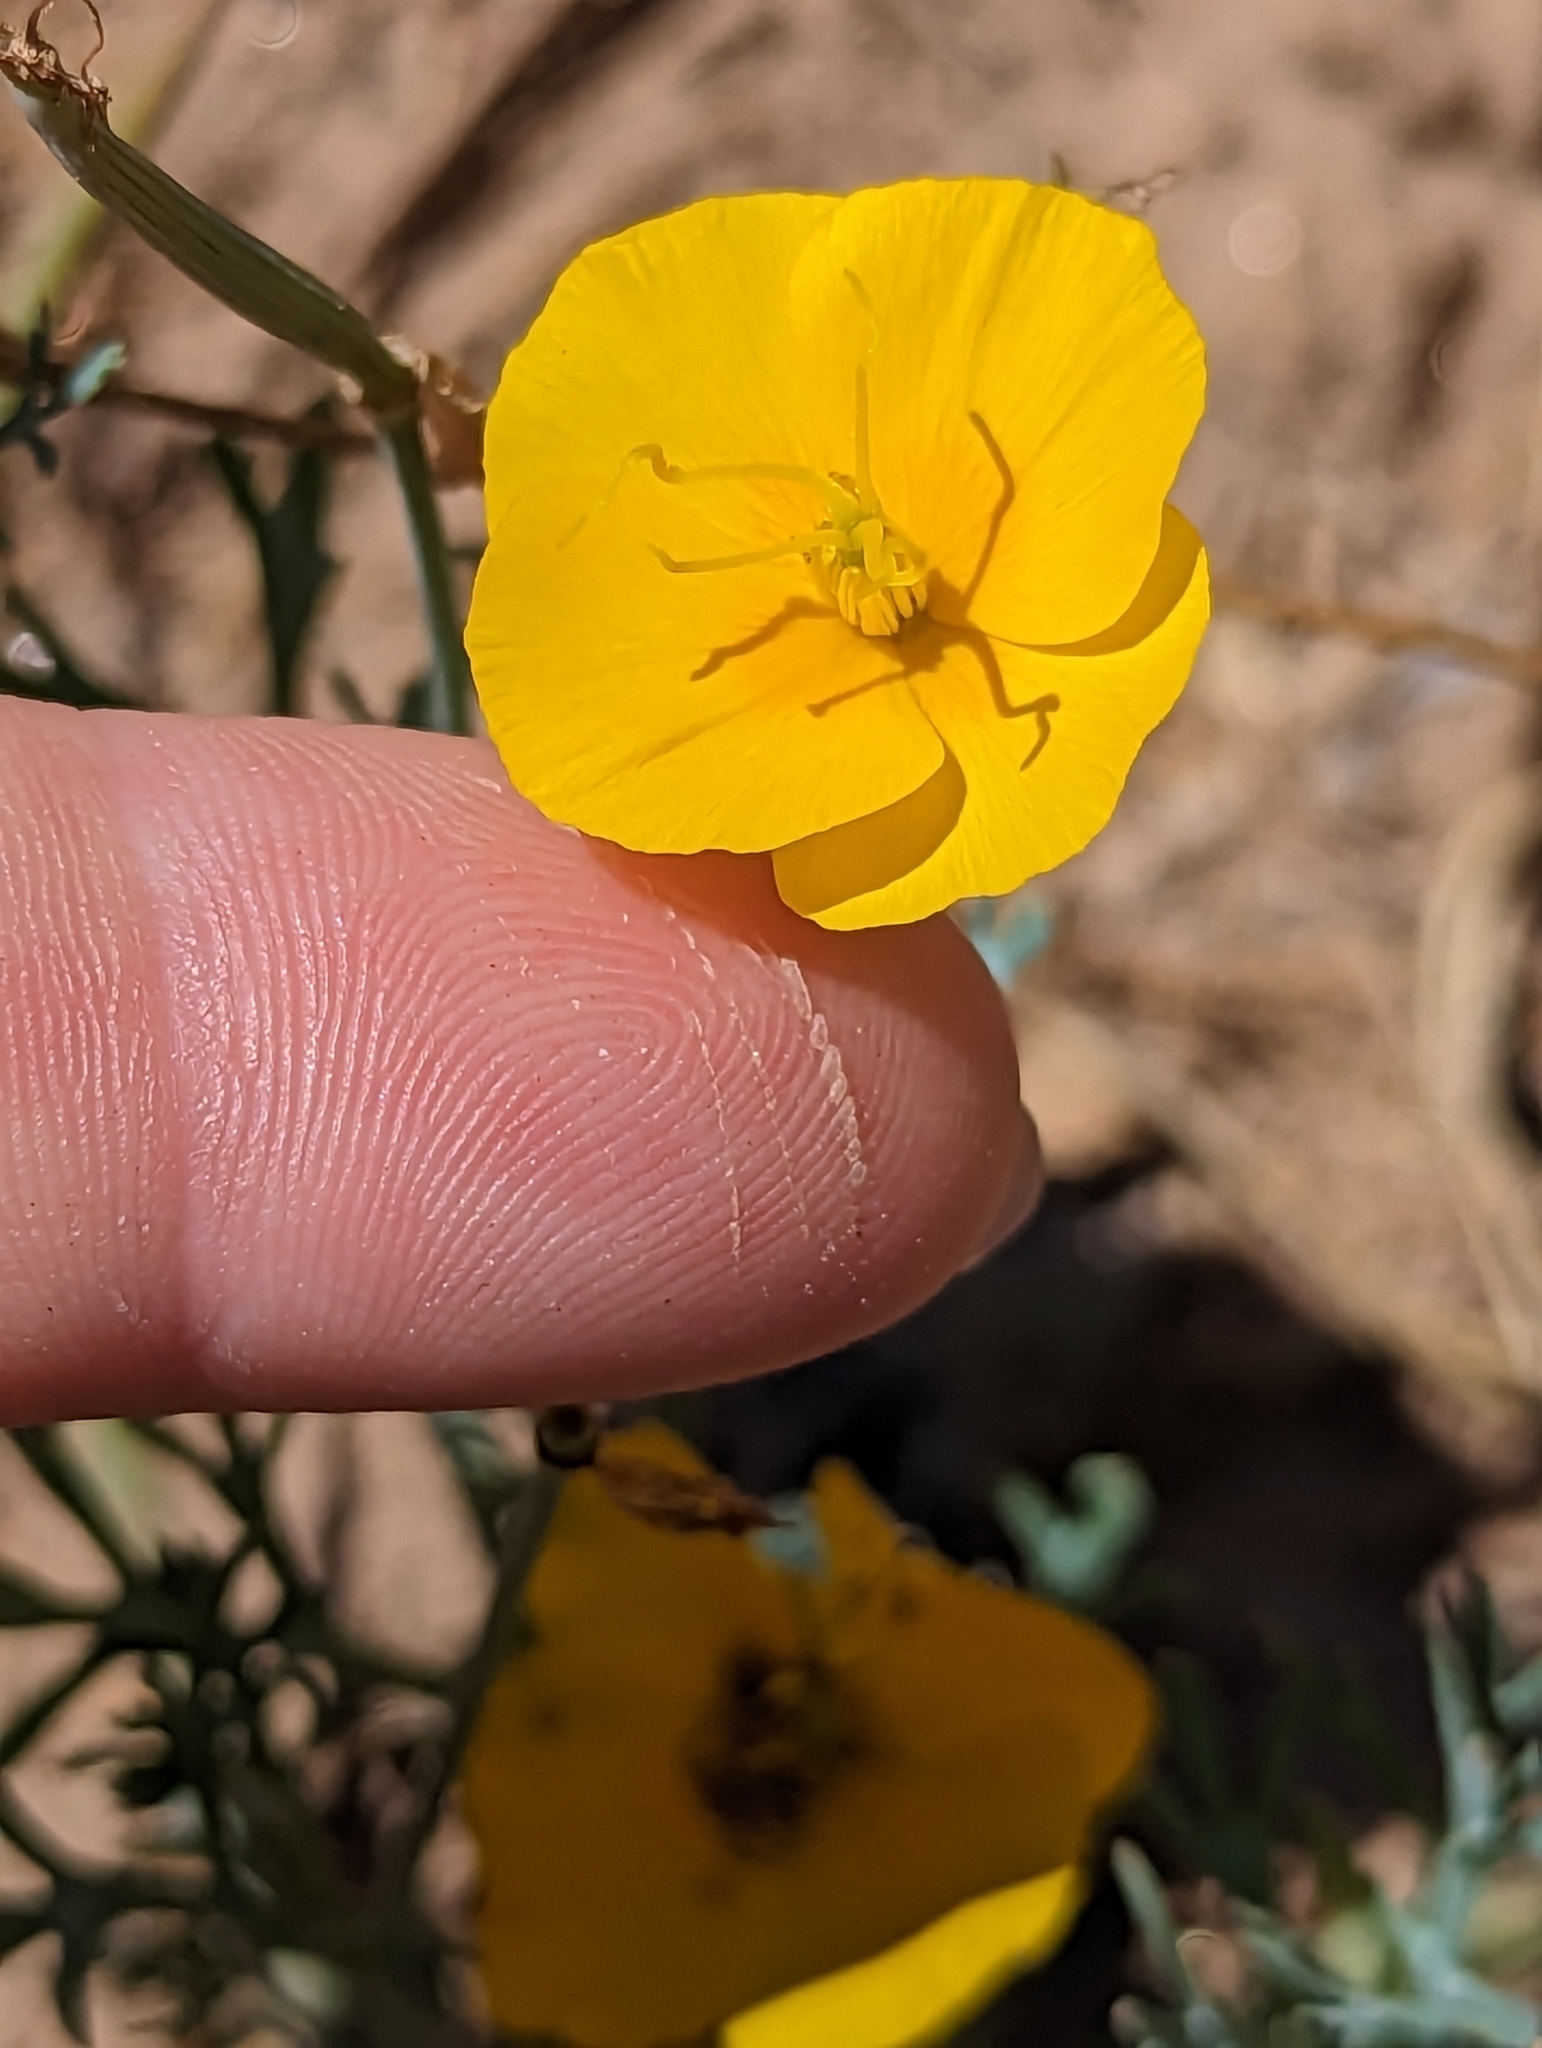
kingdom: Plantae
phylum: Tracheophyta
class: Magnoliopsida
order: Ranunculales
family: Papaveraceae
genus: Eschscholzia
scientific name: Eschscholzia minutiflora
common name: Small-flower california-poppy
